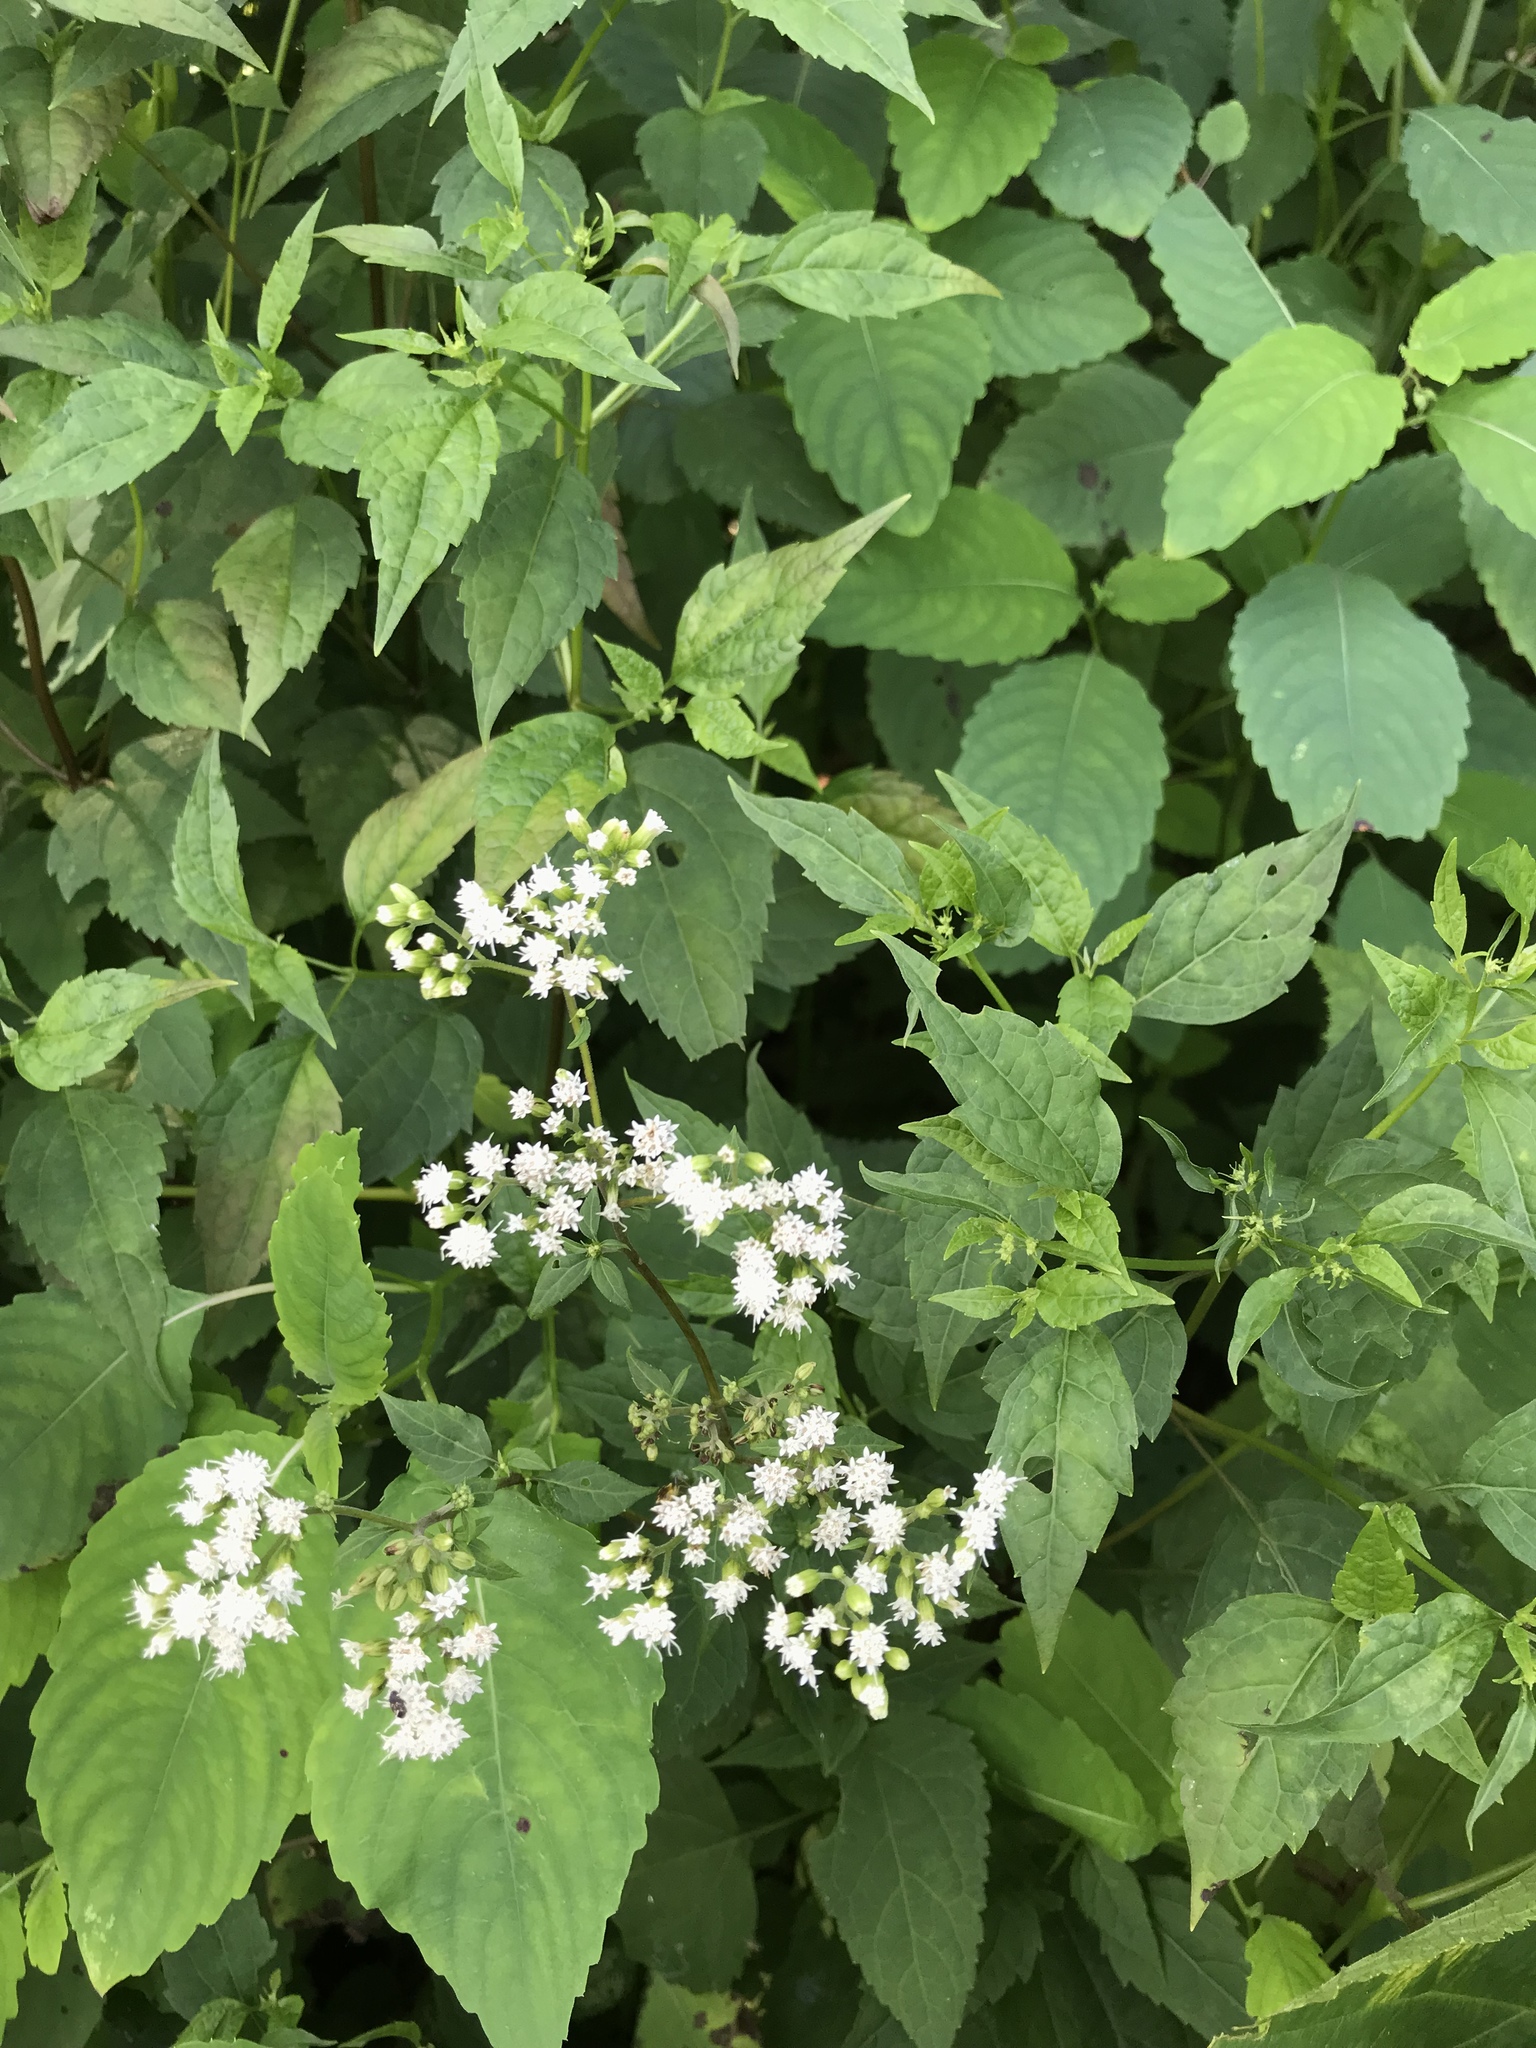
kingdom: Plantae
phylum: Tracheophyta
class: Magnoliopsida
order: Asterales
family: Asteraceae
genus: Ageratina
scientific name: Ageratina altissima
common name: White snakeroot
